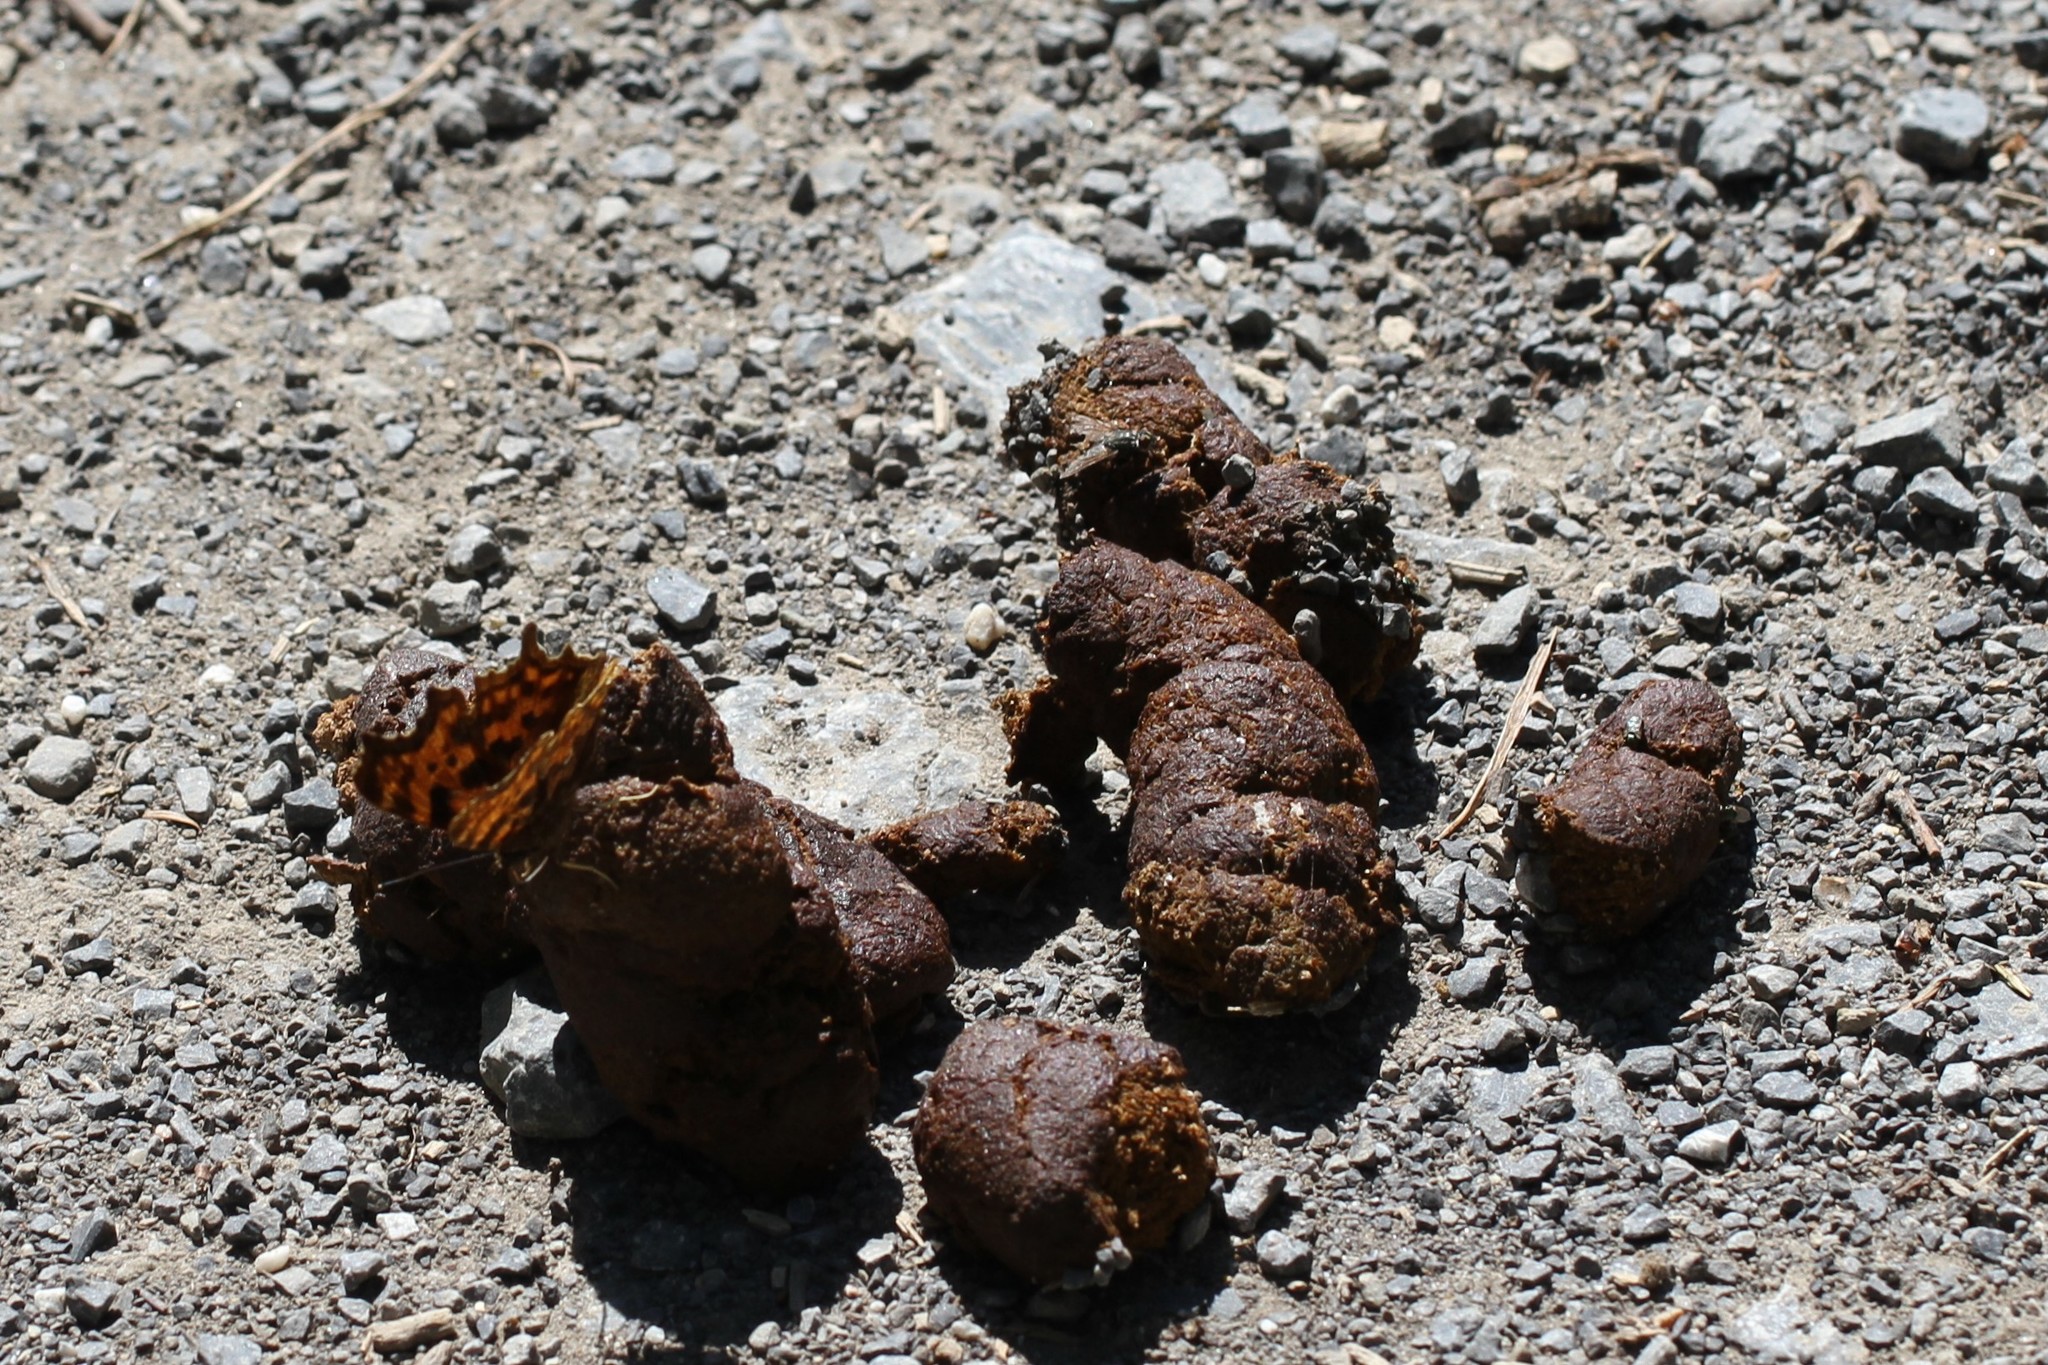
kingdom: Animalia
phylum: Arthropoda
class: Insecta
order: Lepidoptera
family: Nymphalidae
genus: Polygonia
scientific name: Polygonia c-album
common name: Comma
